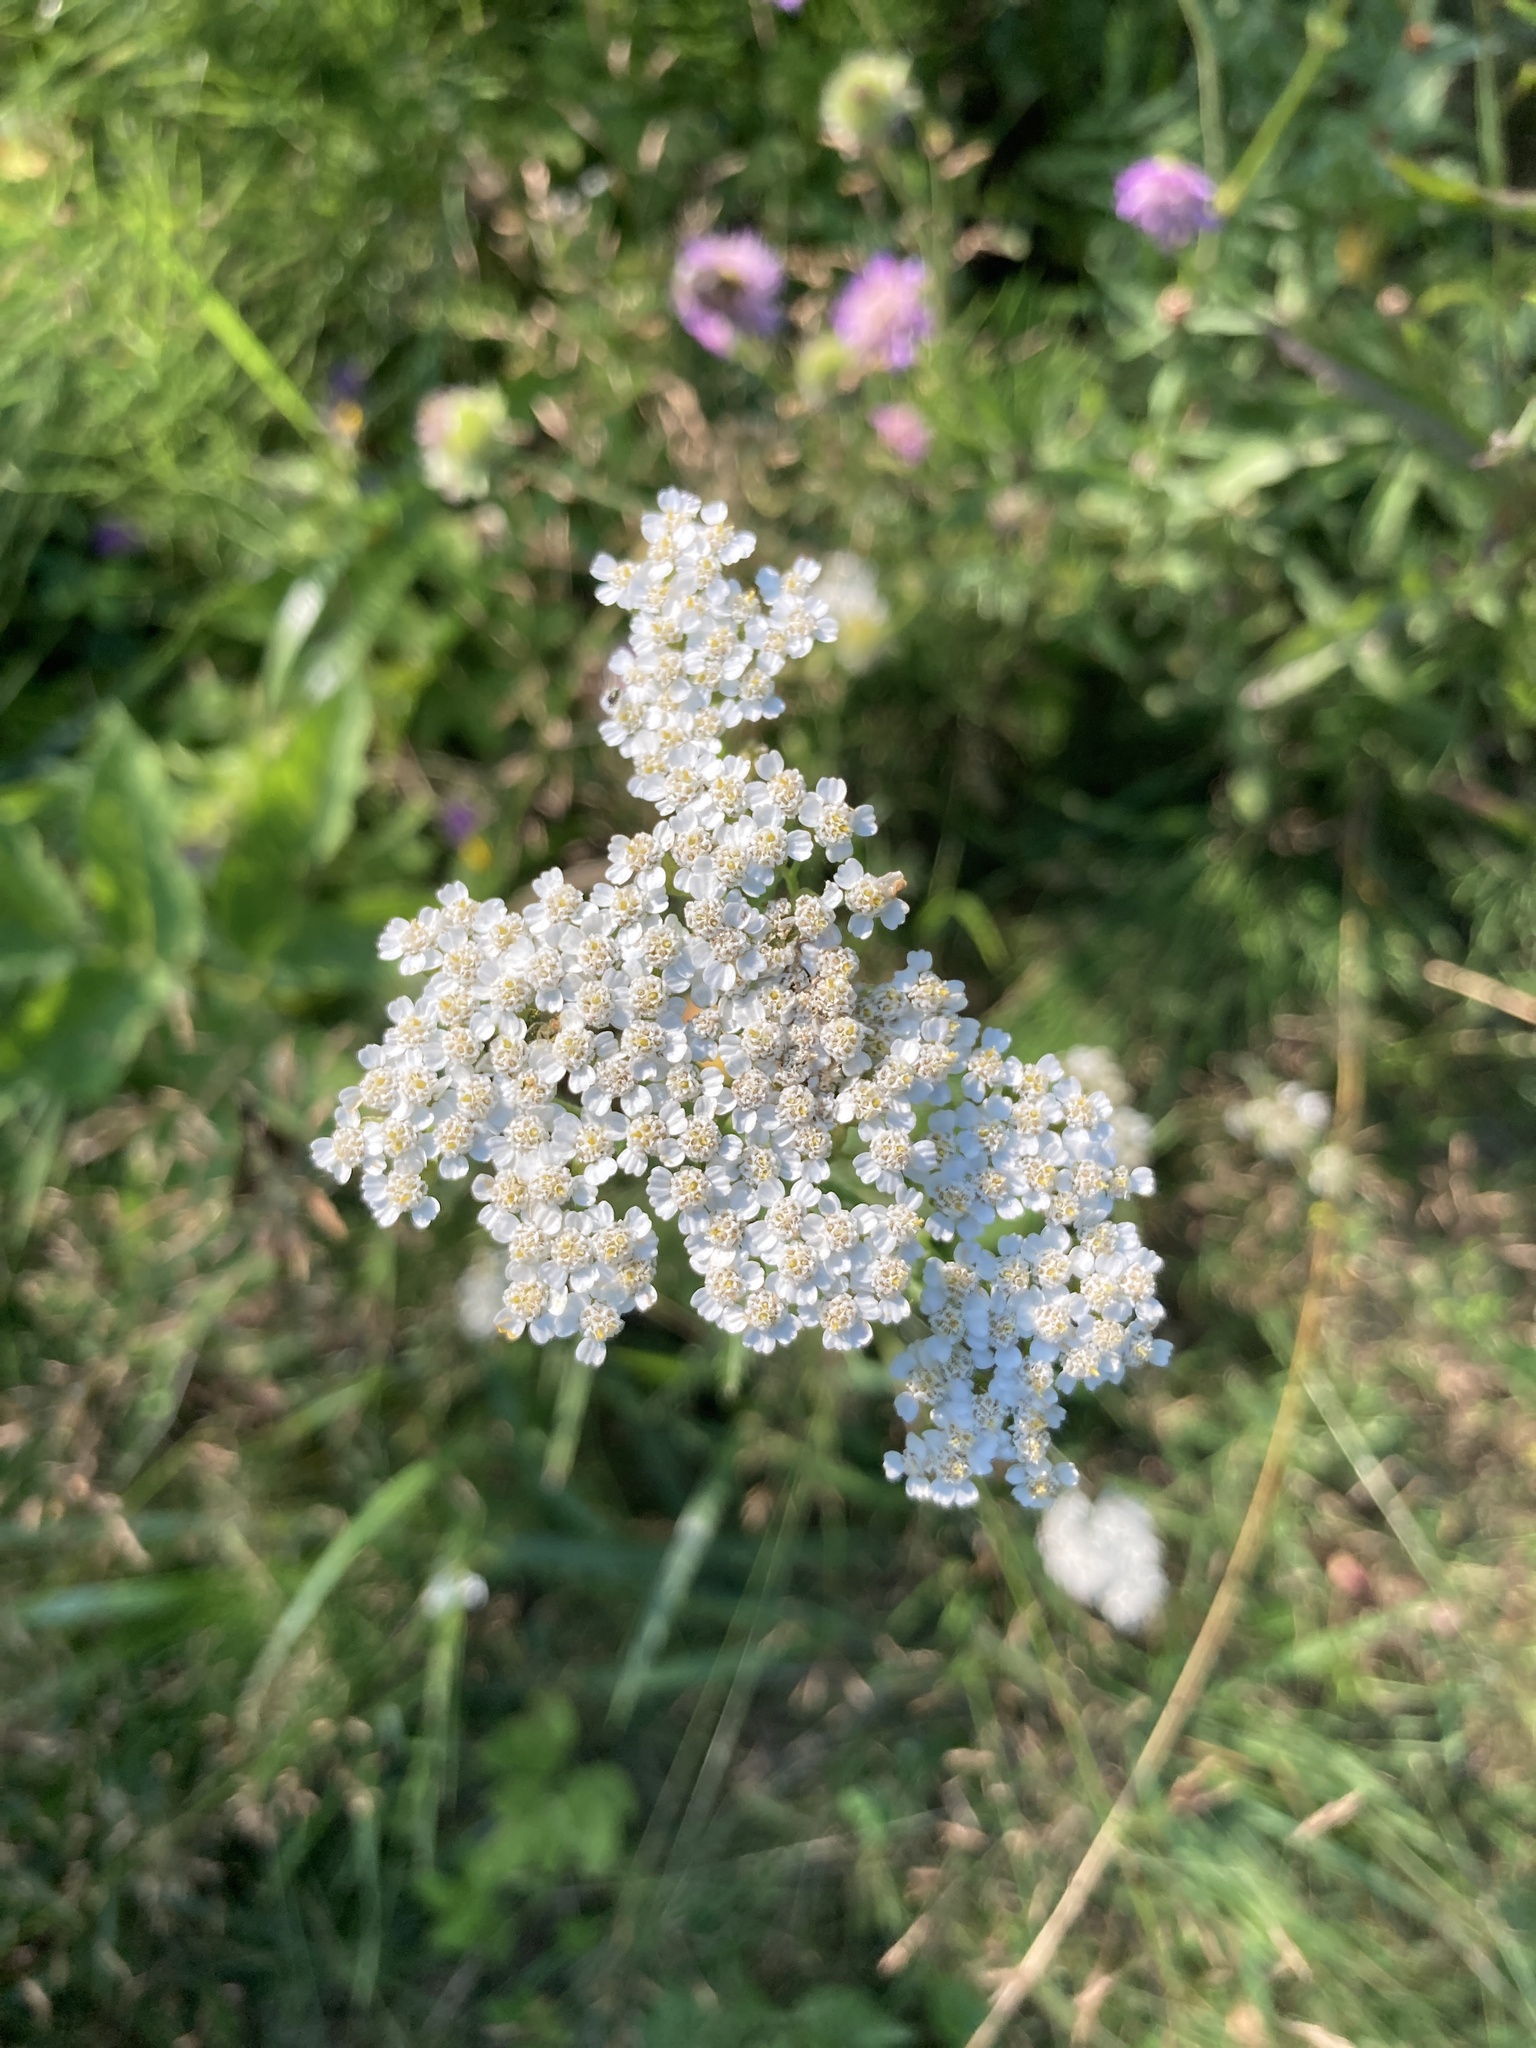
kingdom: Plantae
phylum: Tracheophyta
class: Magnoliopsida
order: Asterales
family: Asteraceae
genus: Achillea
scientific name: Achillea millefolium
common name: Yarrow
